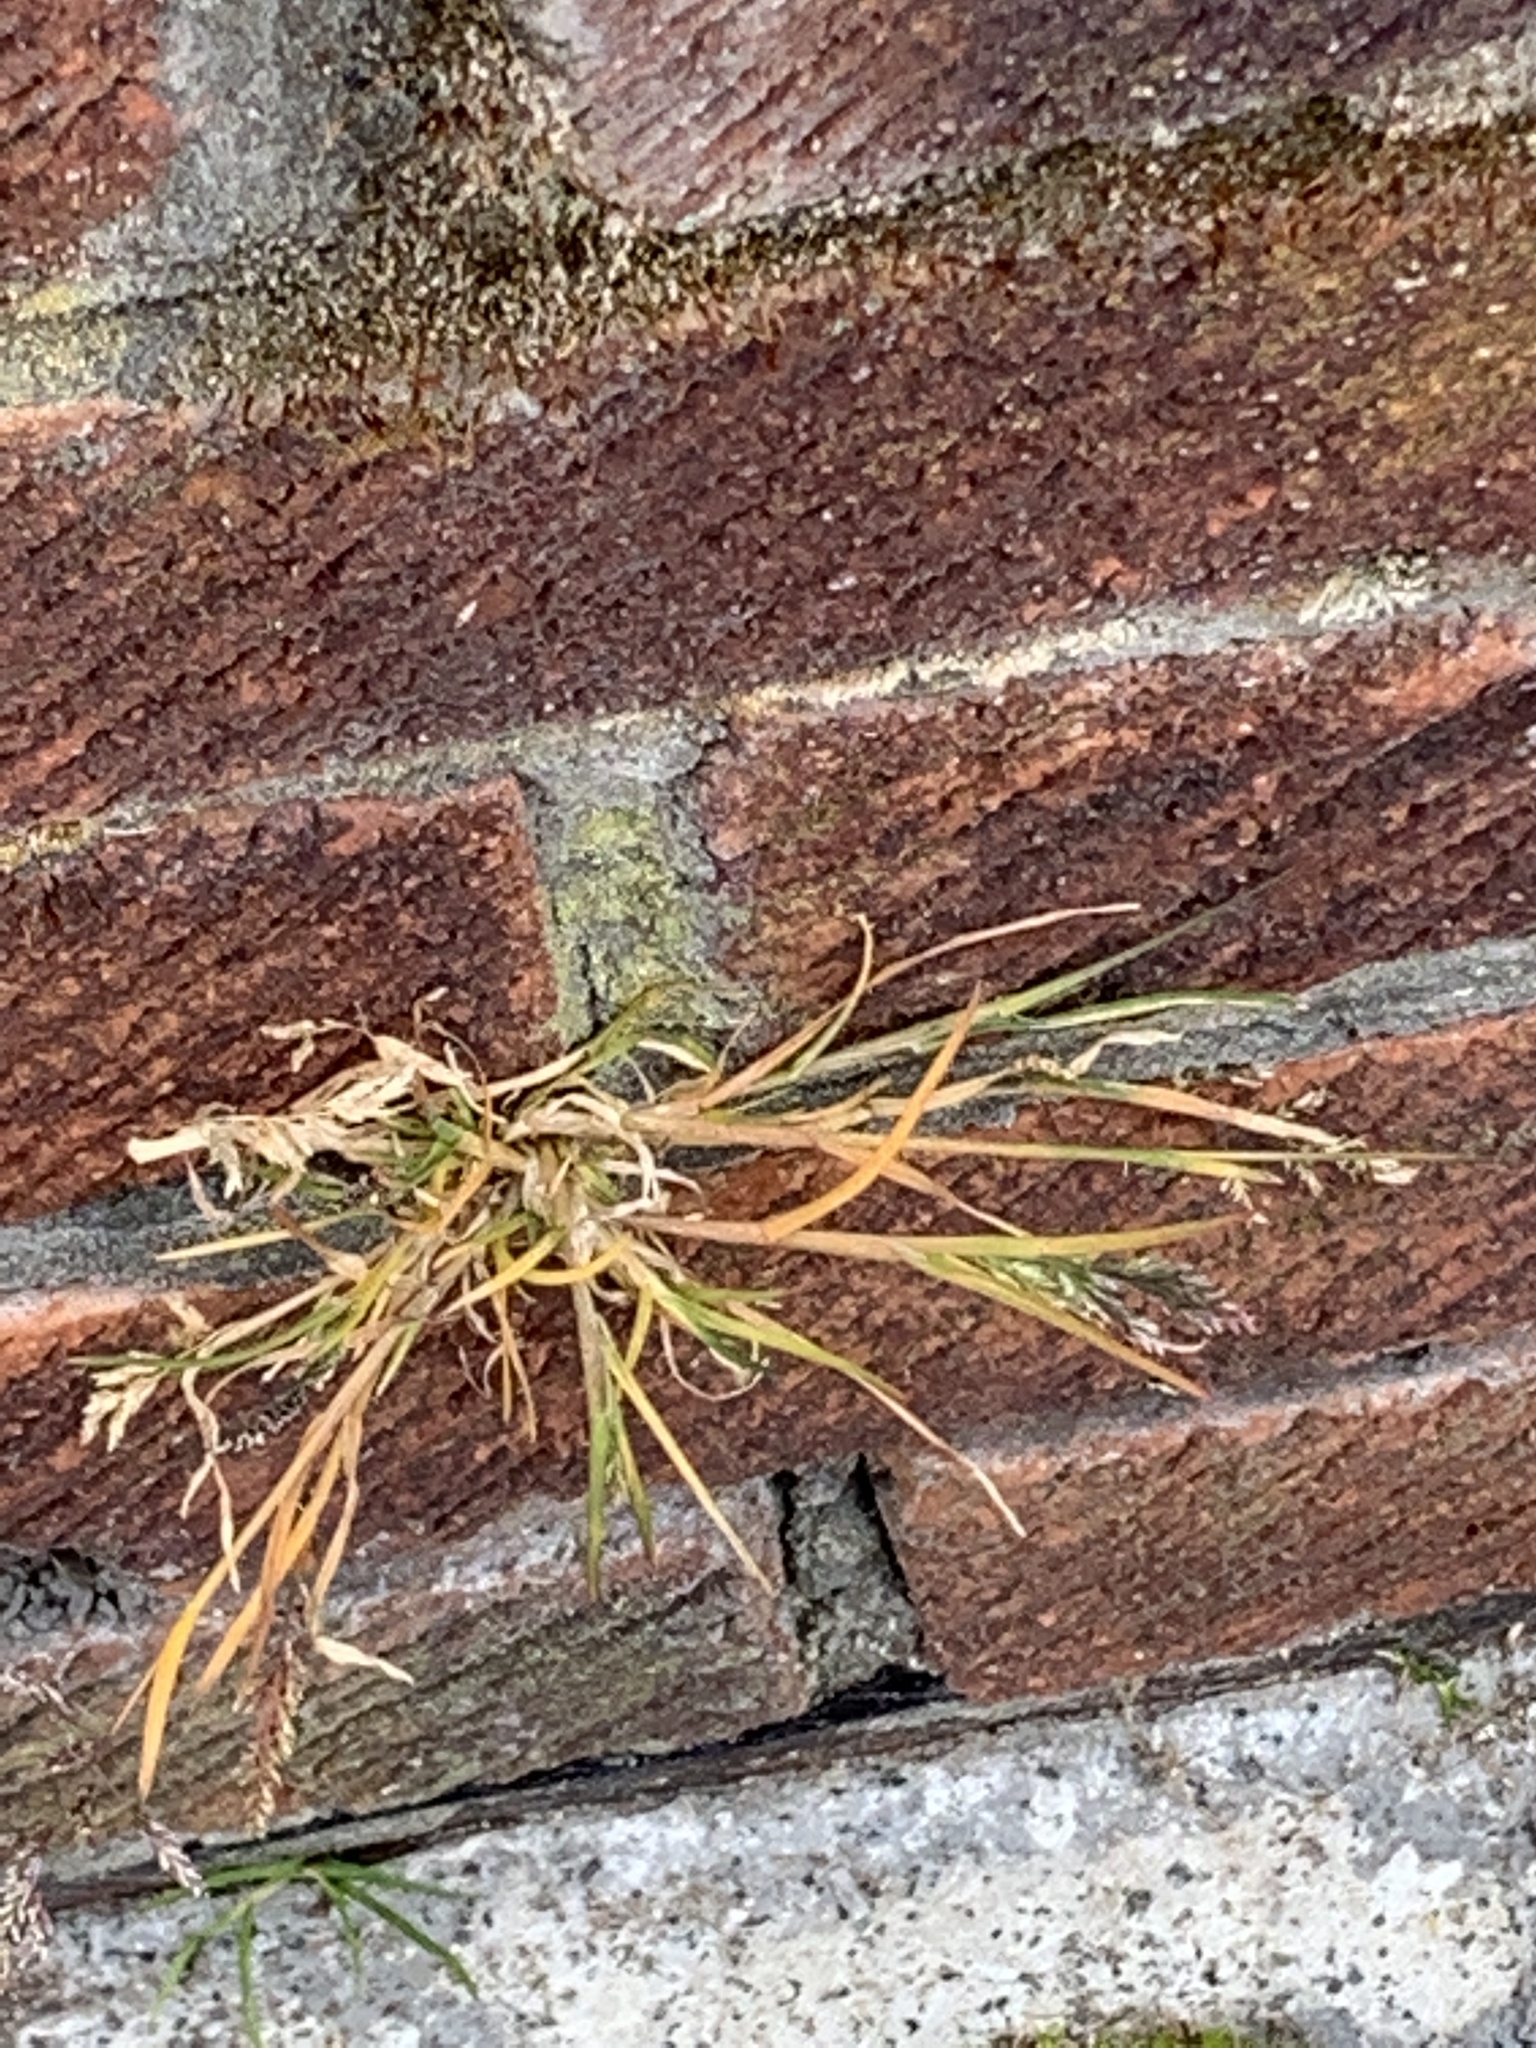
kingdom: Plantae
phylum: Tracheophyta
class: Liliopsida
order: Poales
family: Poaceae
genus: Poa
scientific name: Poa annua
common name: Annual bluegrass
